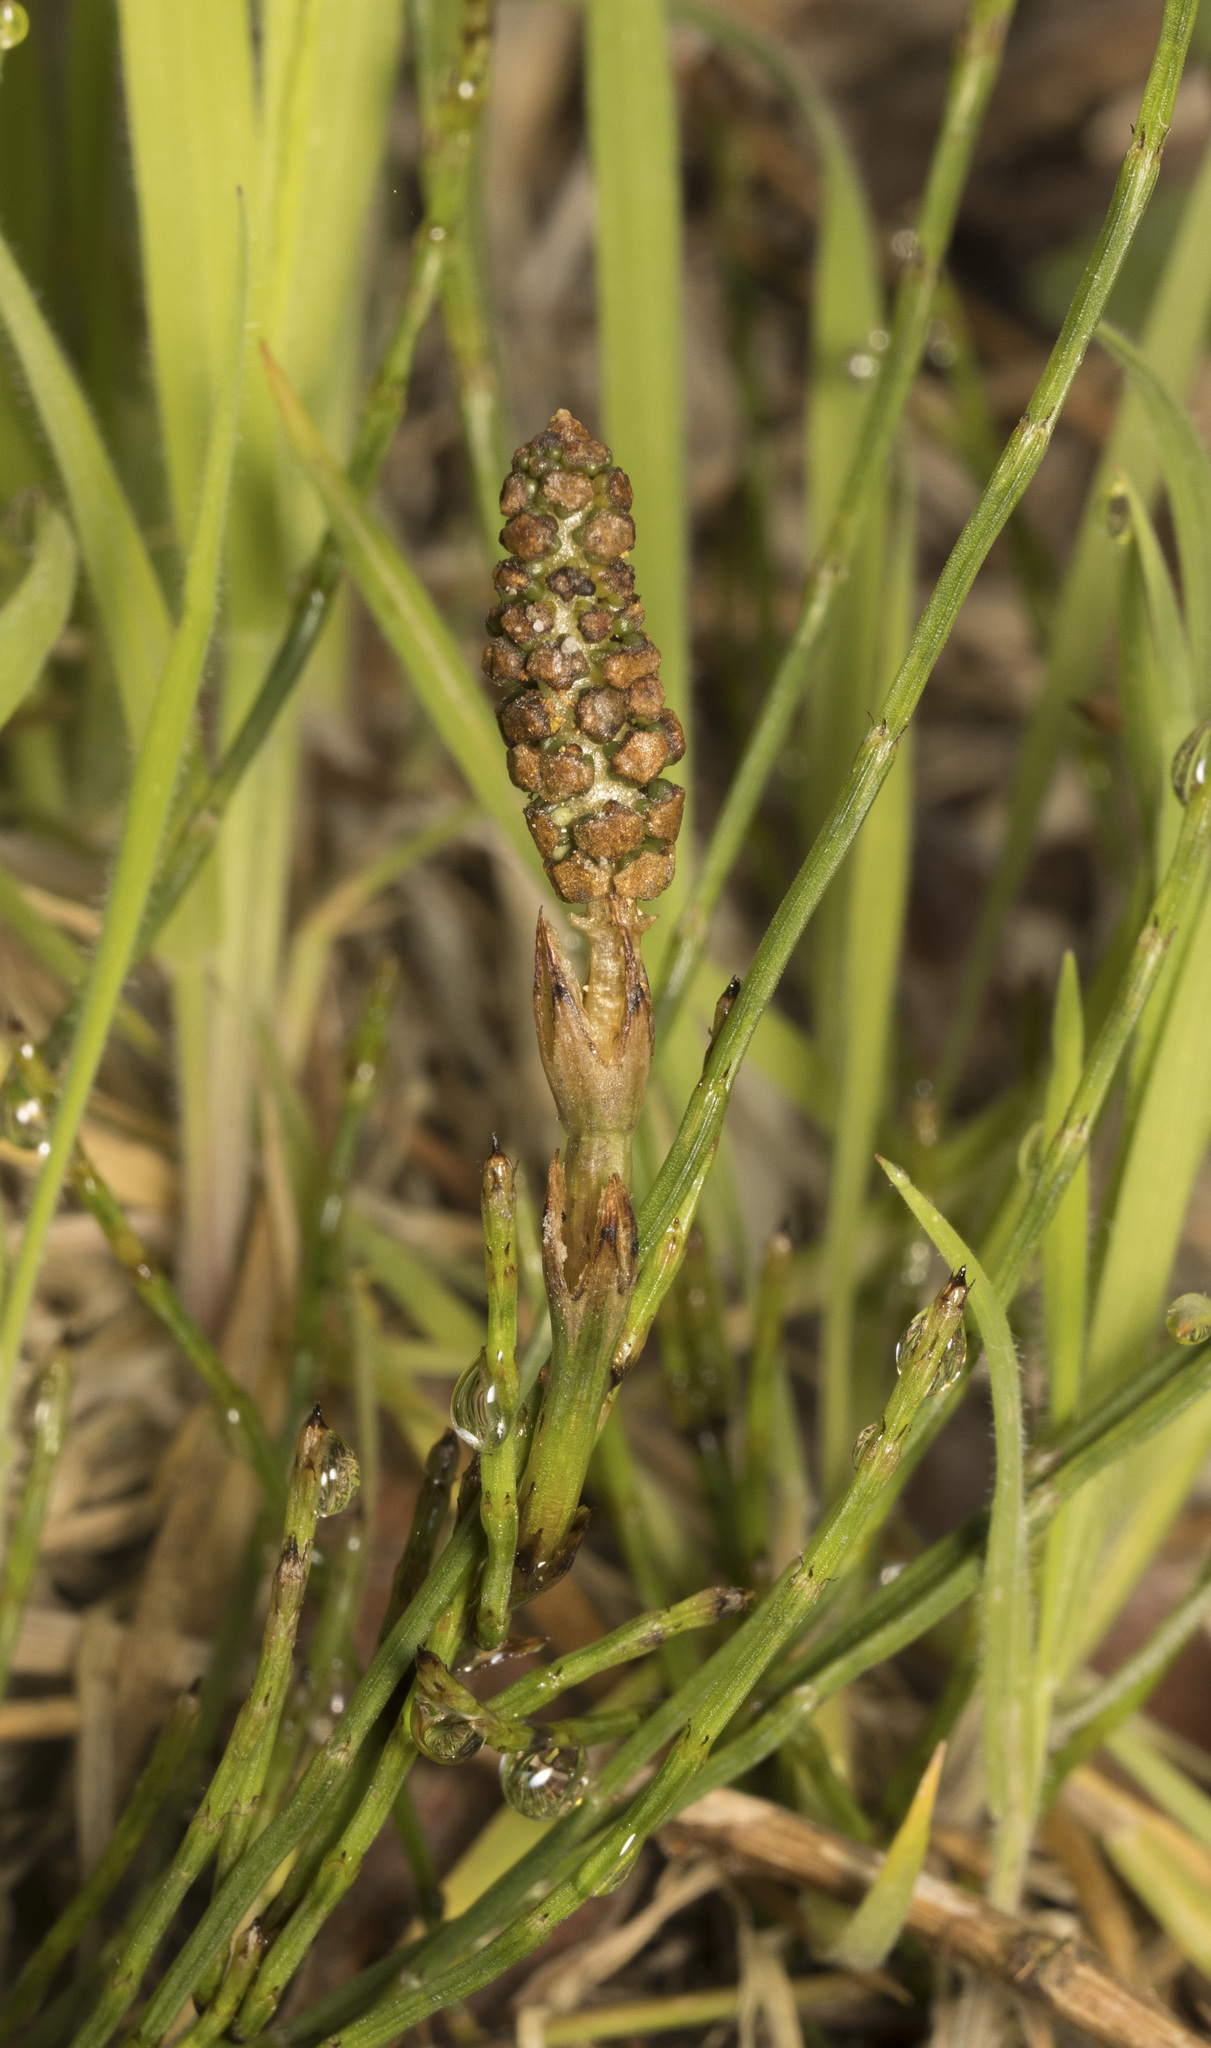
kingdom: Plantae
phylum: Tracheophyta
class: Polypodiopsida
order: Equisetales
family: Equisetaceae
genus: Equisetum
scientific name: Equisetum bogotense
